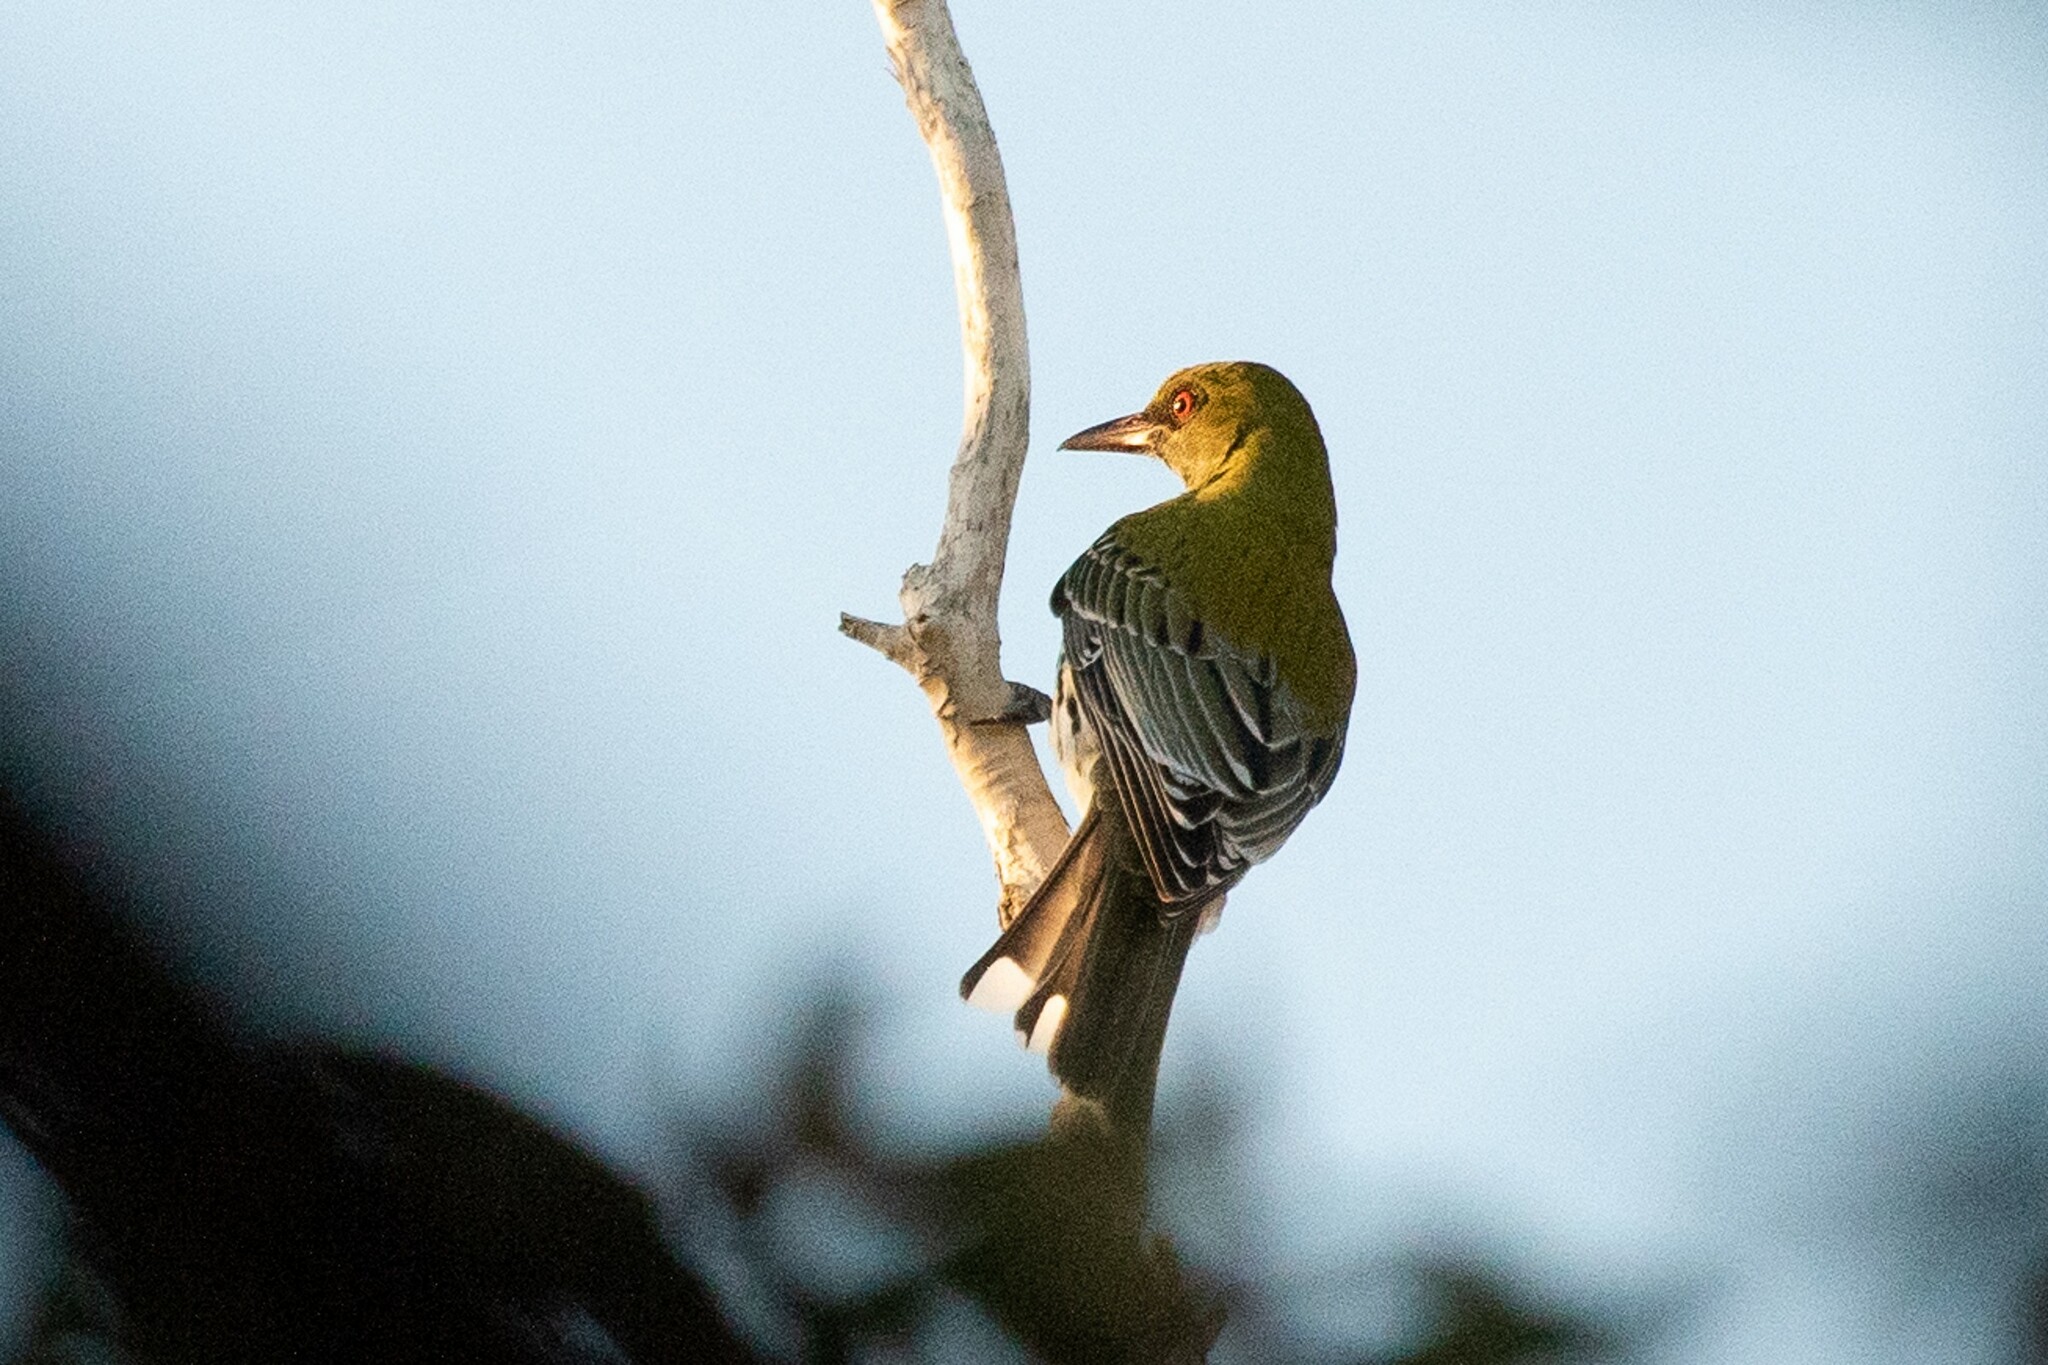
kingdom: Animalia
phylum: Chordata
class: Aves
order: Passeriformes
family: Oriolidae
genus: Oriolus
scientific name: Oriolus sagittatus
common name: Olive-backed oriole
